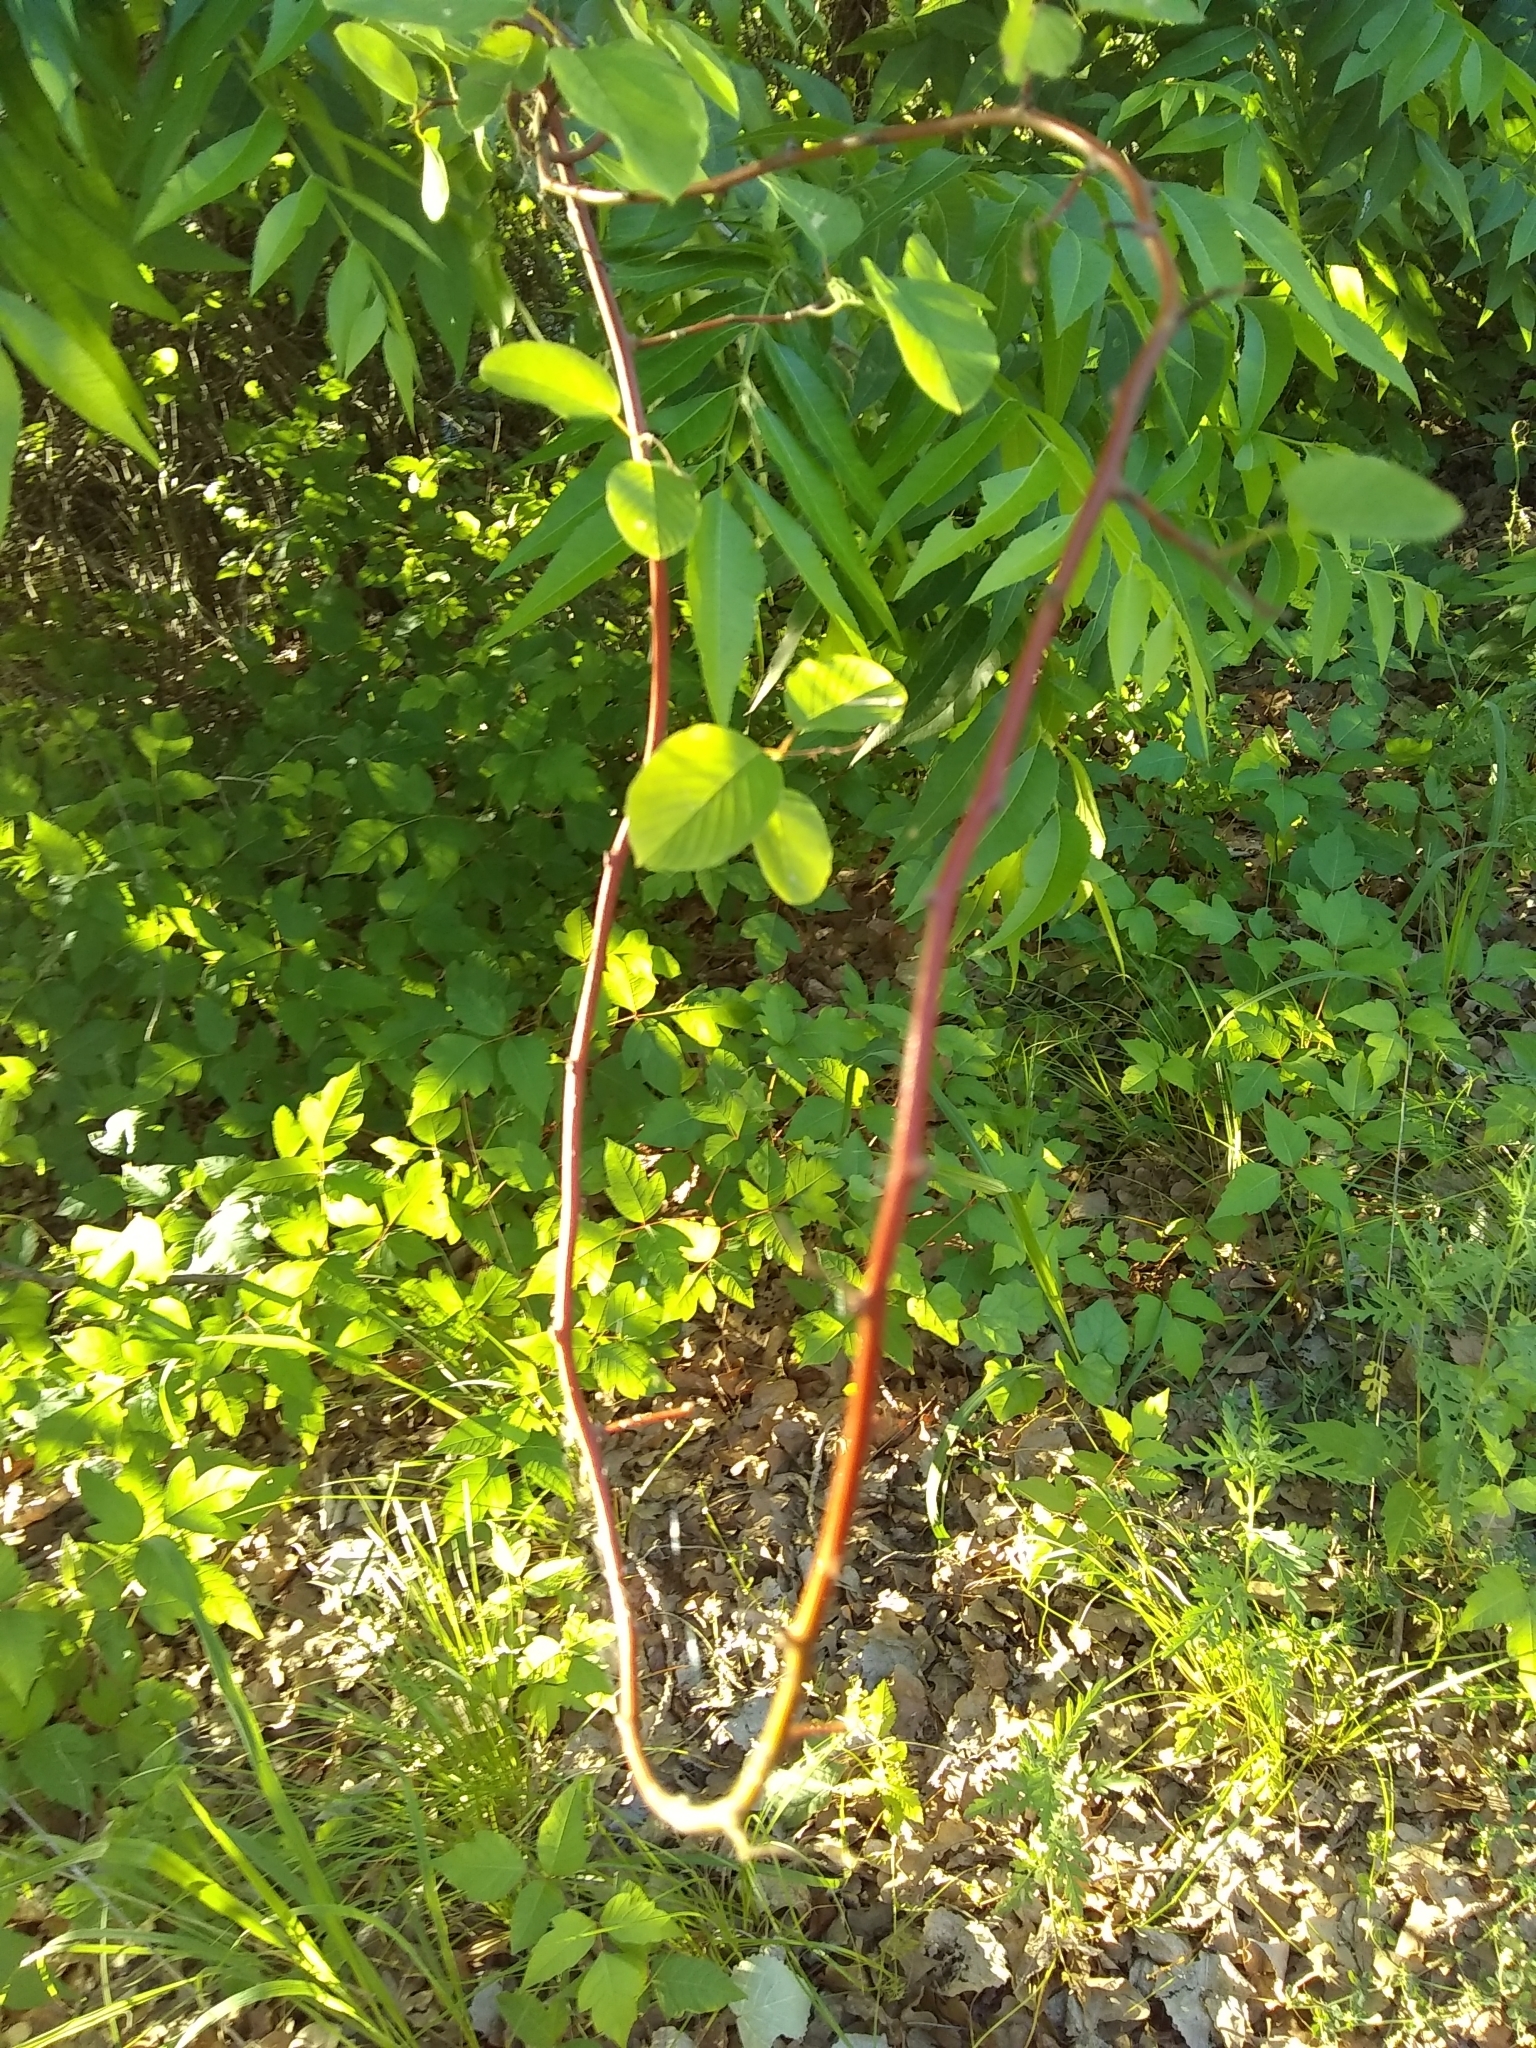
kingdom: Plantae
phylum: Tracheophyta
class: Magnoliopsida
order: Rosales
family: Rhamnaceae
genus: Berchemia
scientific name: Berchemia scandens
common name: Supplejack
